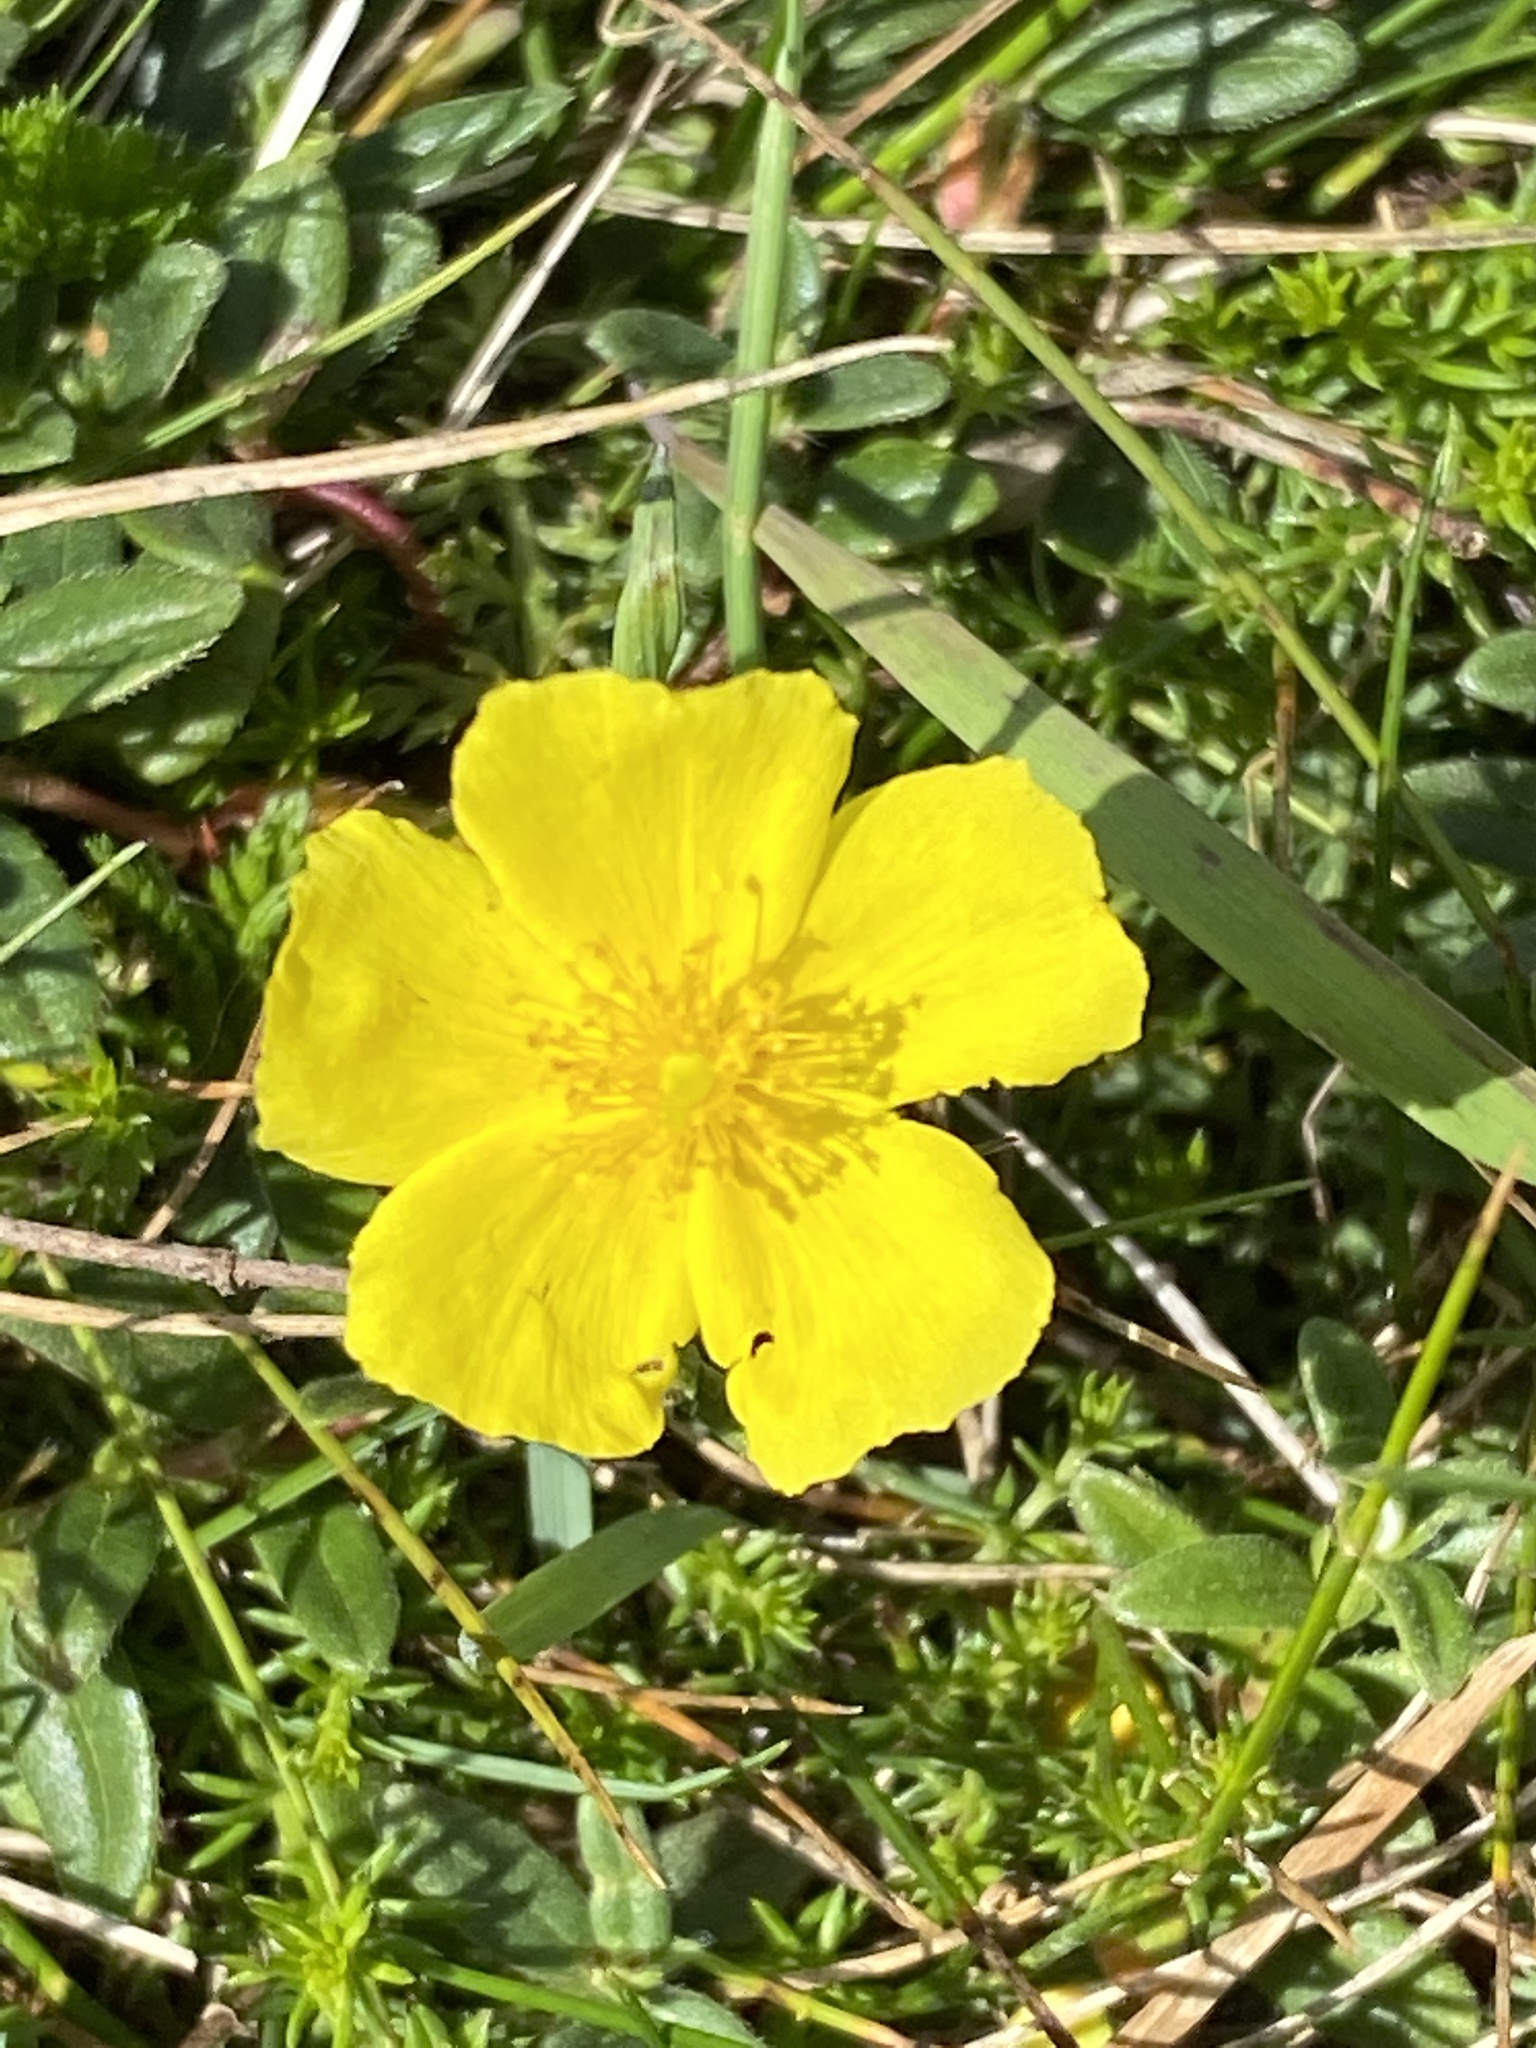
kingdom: Plantae
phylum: Tracheophyta
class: Magnoliopsida
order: Malvales
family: Cistaceae
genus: Helianthemum
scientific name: Helianthemum nummularium
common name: Common rock-rose
